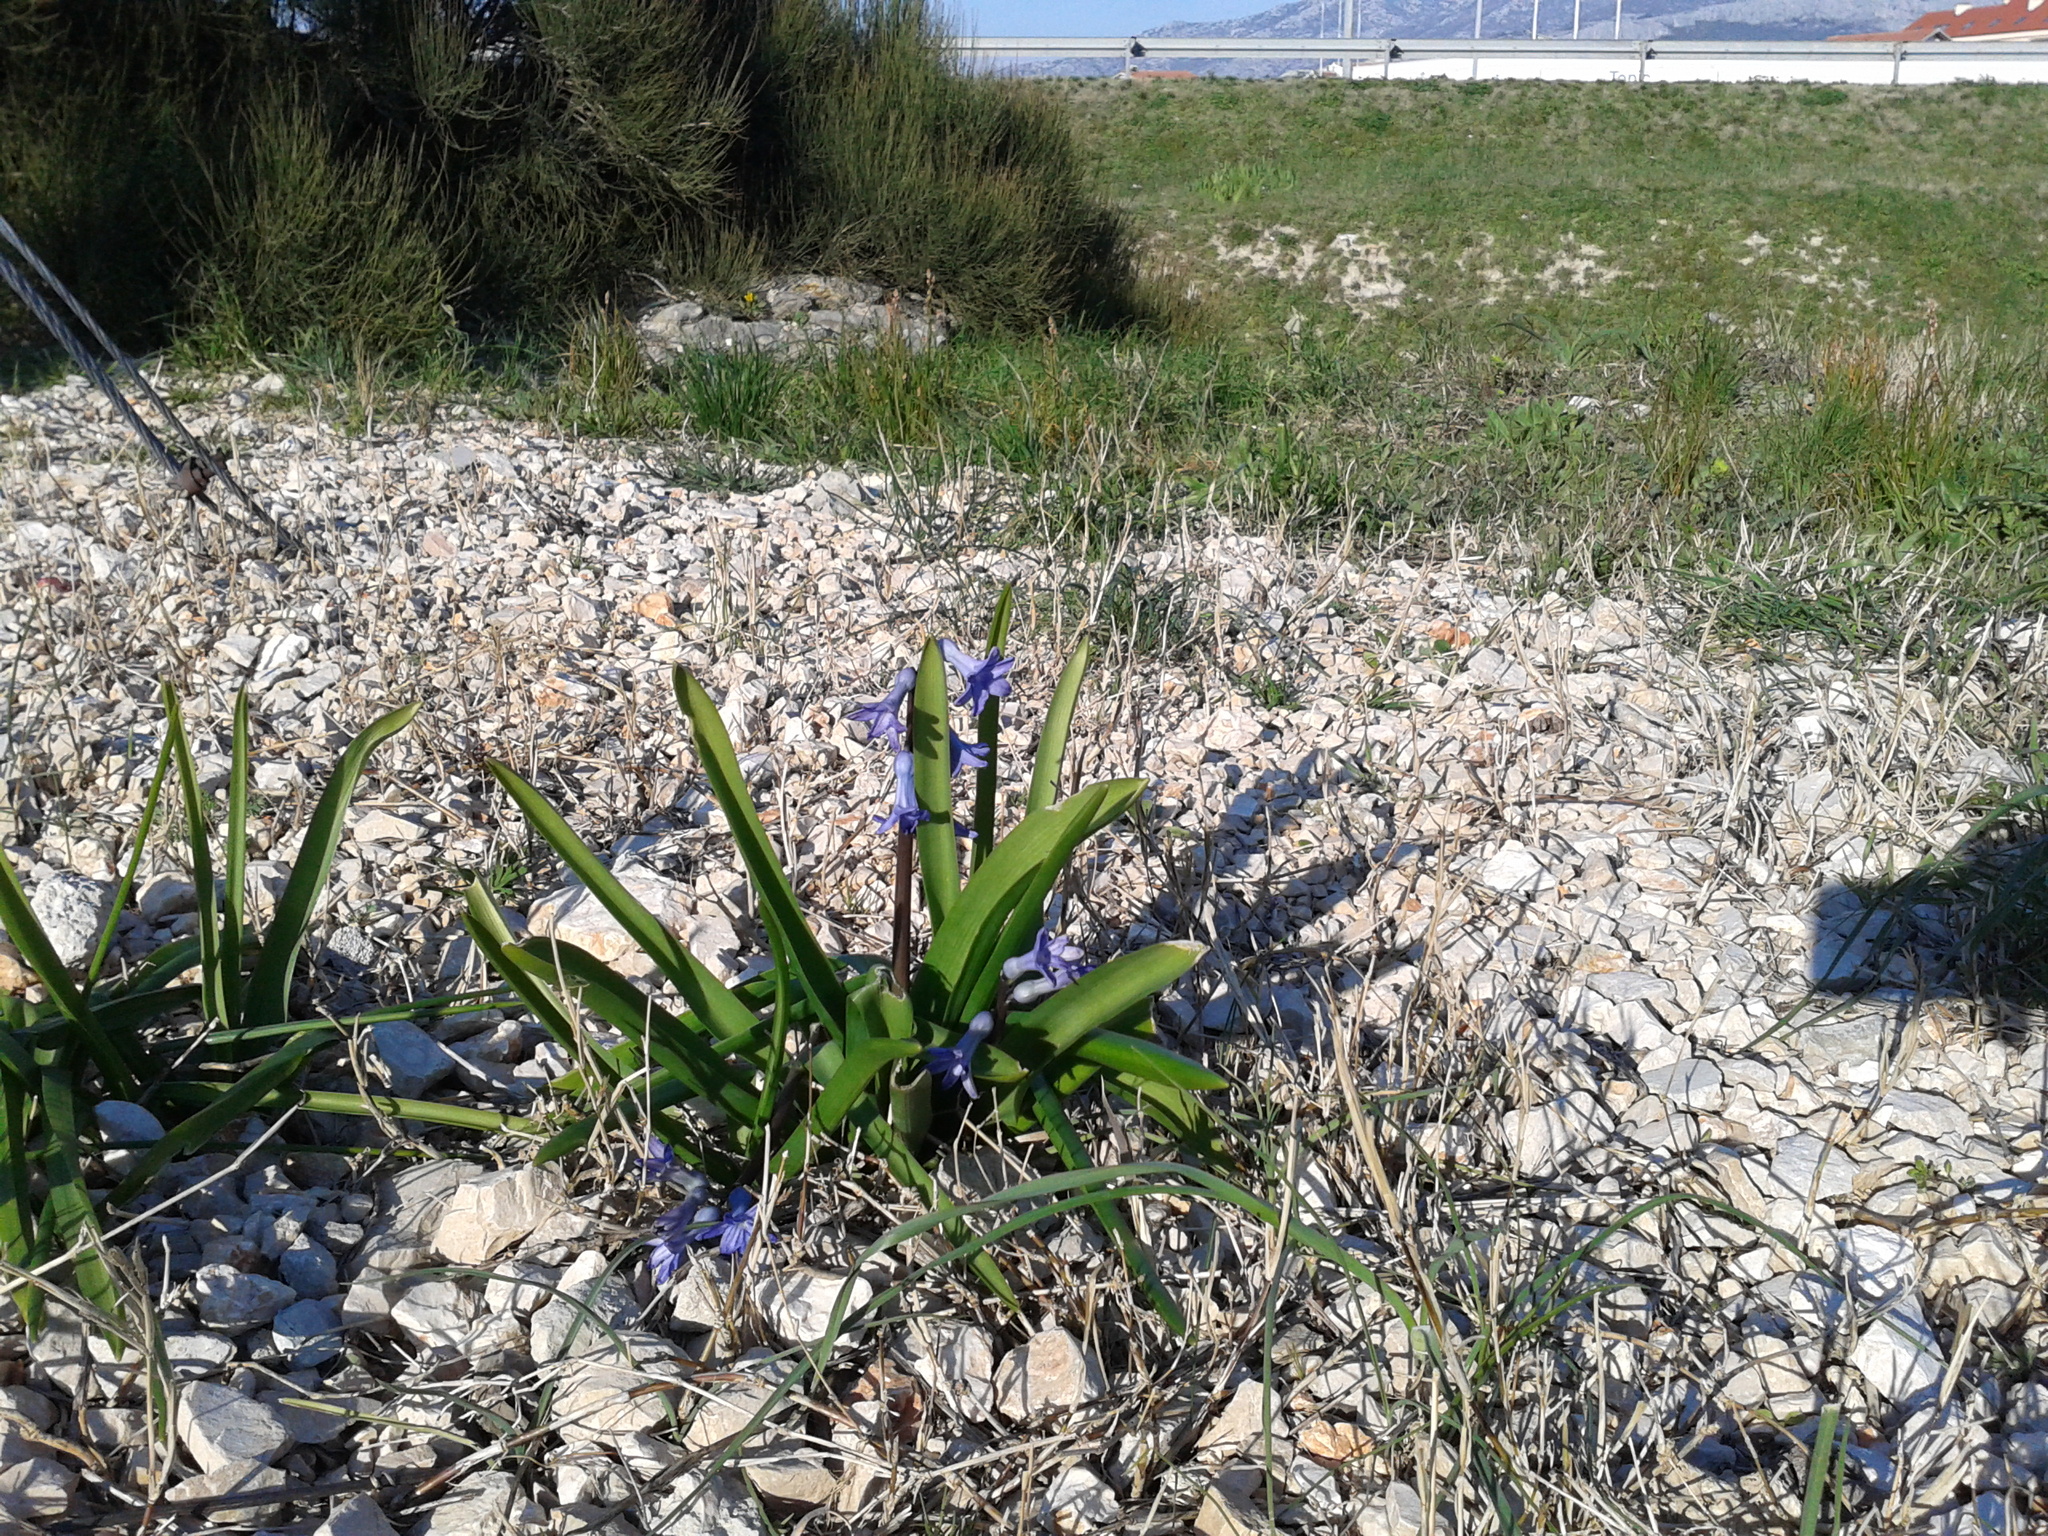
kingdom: Plantae
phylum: Tracheophyta
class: Liliopsida
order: Asparagales
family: Asparagaceae
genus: Hyacinthus
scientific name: Hyacinthus orientalis
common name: Hyacinth
